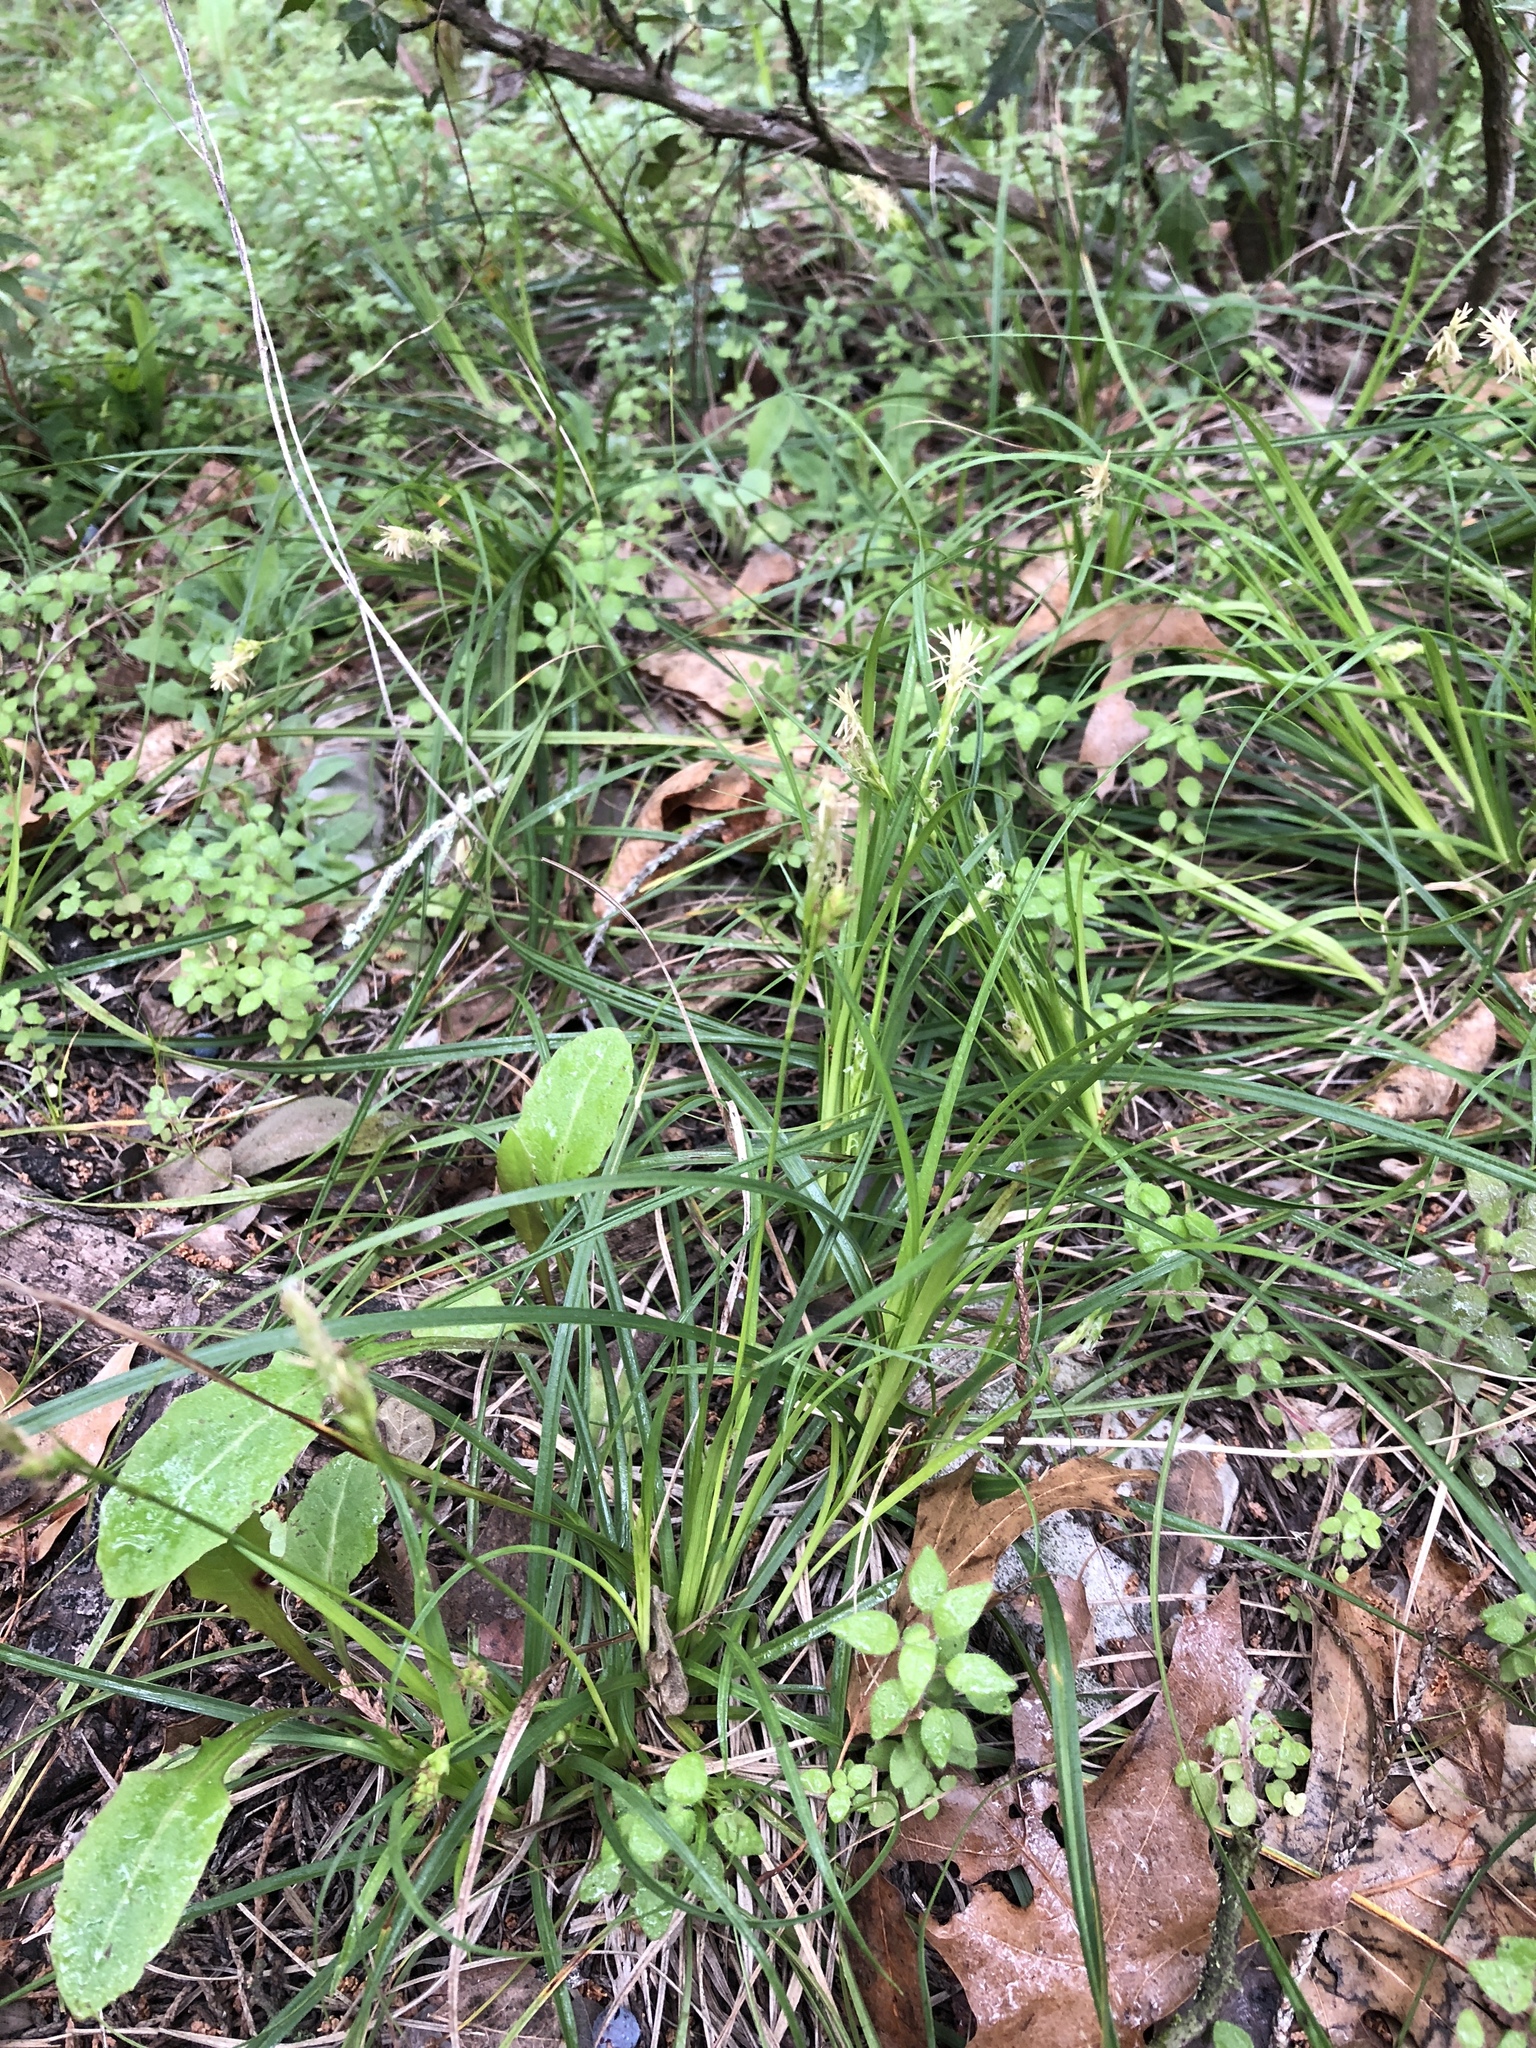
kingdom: Plantae
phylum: Tracheophyta
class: Liliopsida
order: Poales
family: Cyperaceae
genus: Carex
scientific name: Carex planostachys
